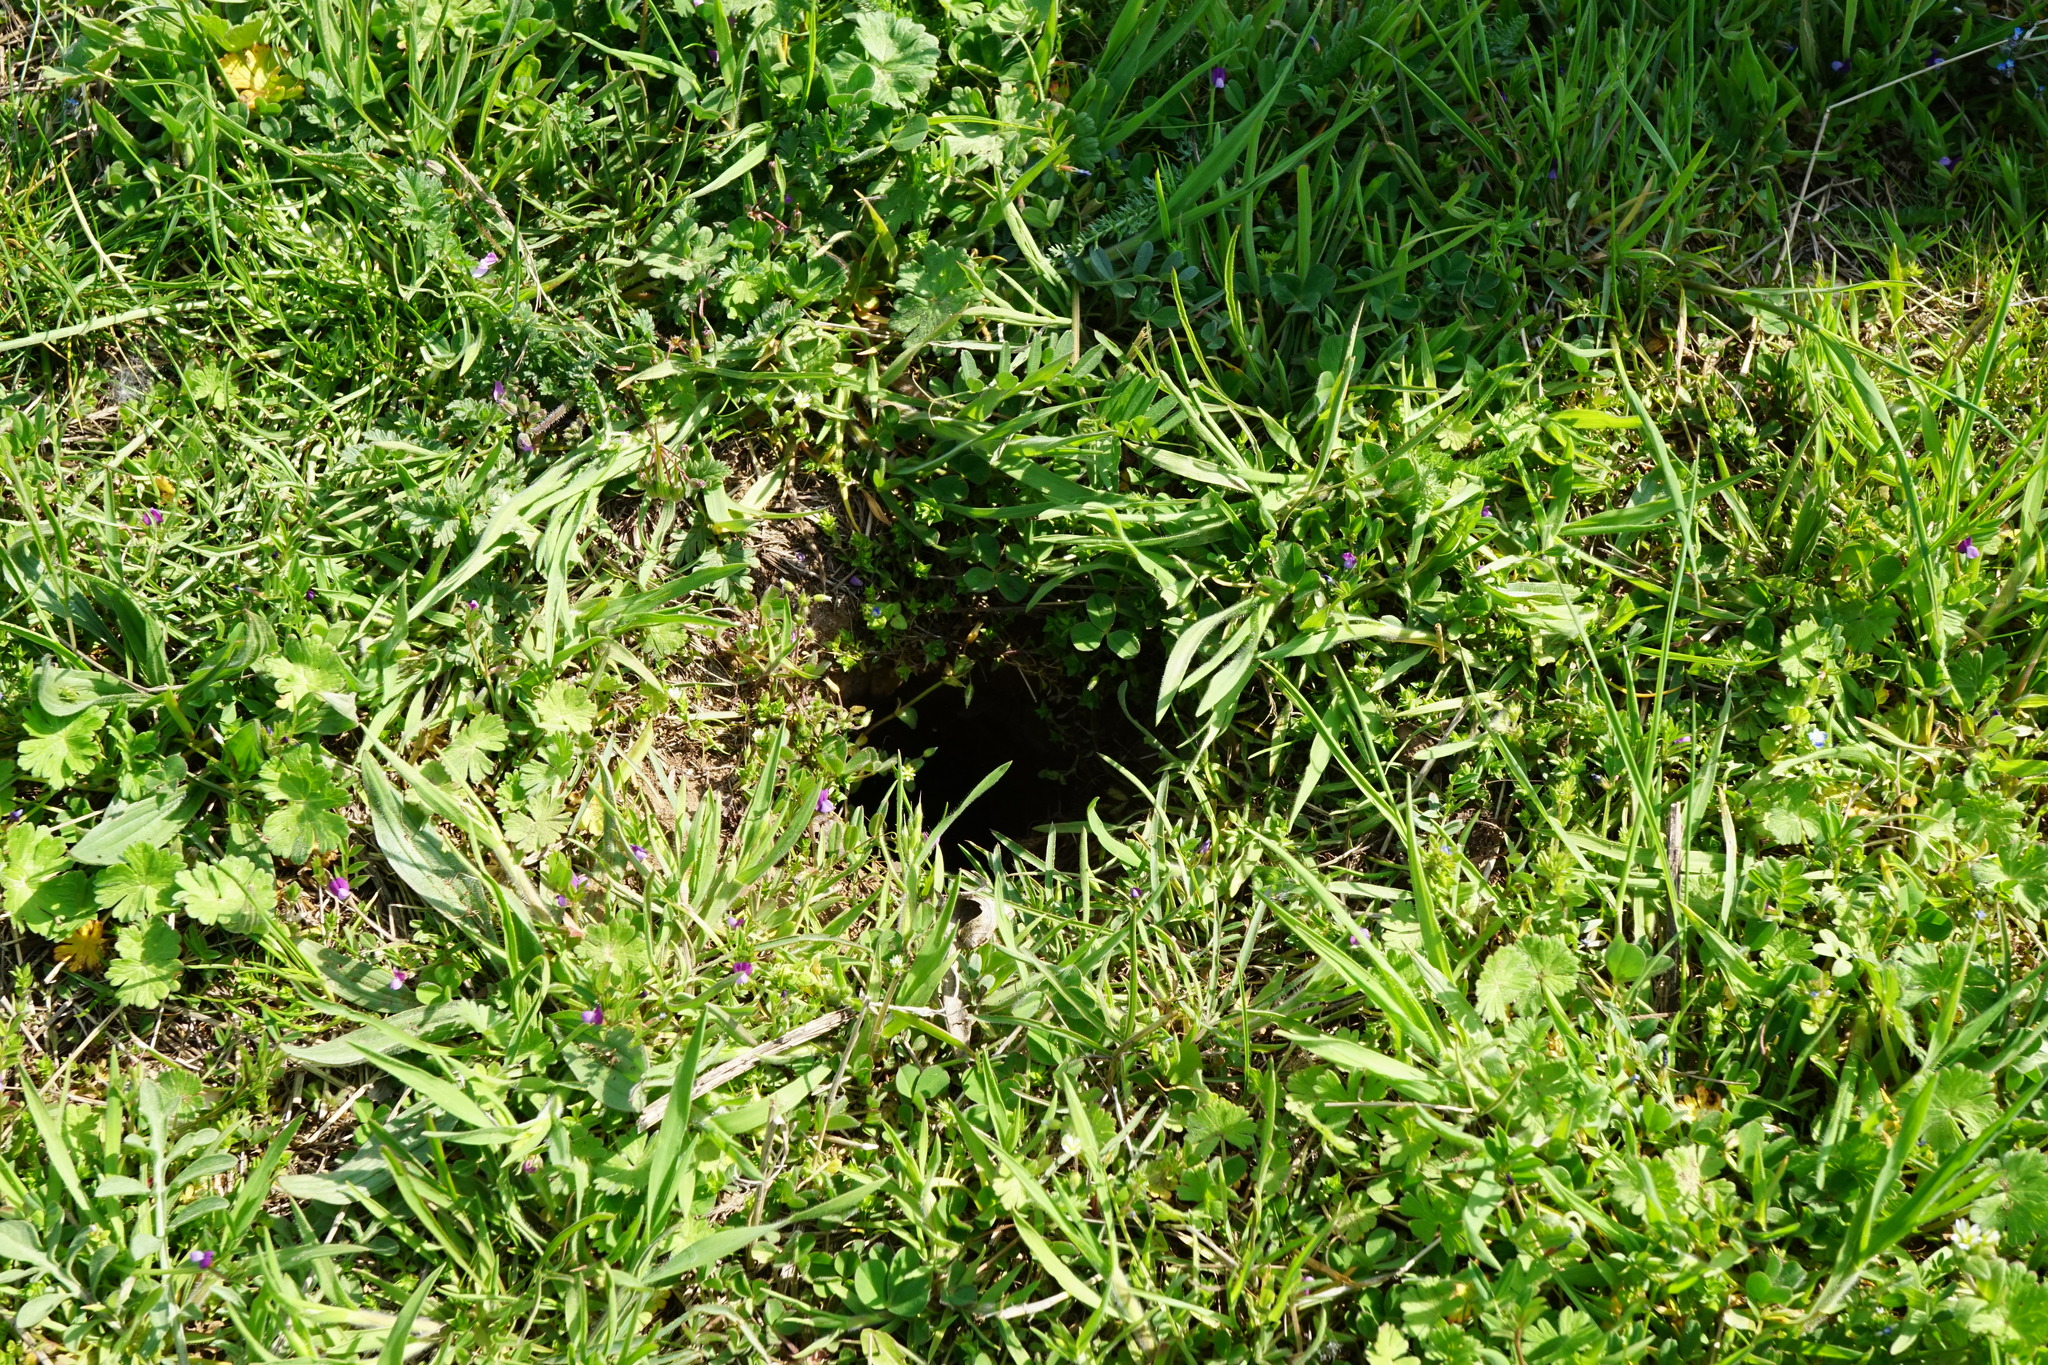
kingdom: Animalia
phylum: Chordata
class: Mammalia
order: Rodentia
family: Sciuridae
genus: Spermophilus
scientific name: Spermophilus citellus
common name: European ground squirrel
